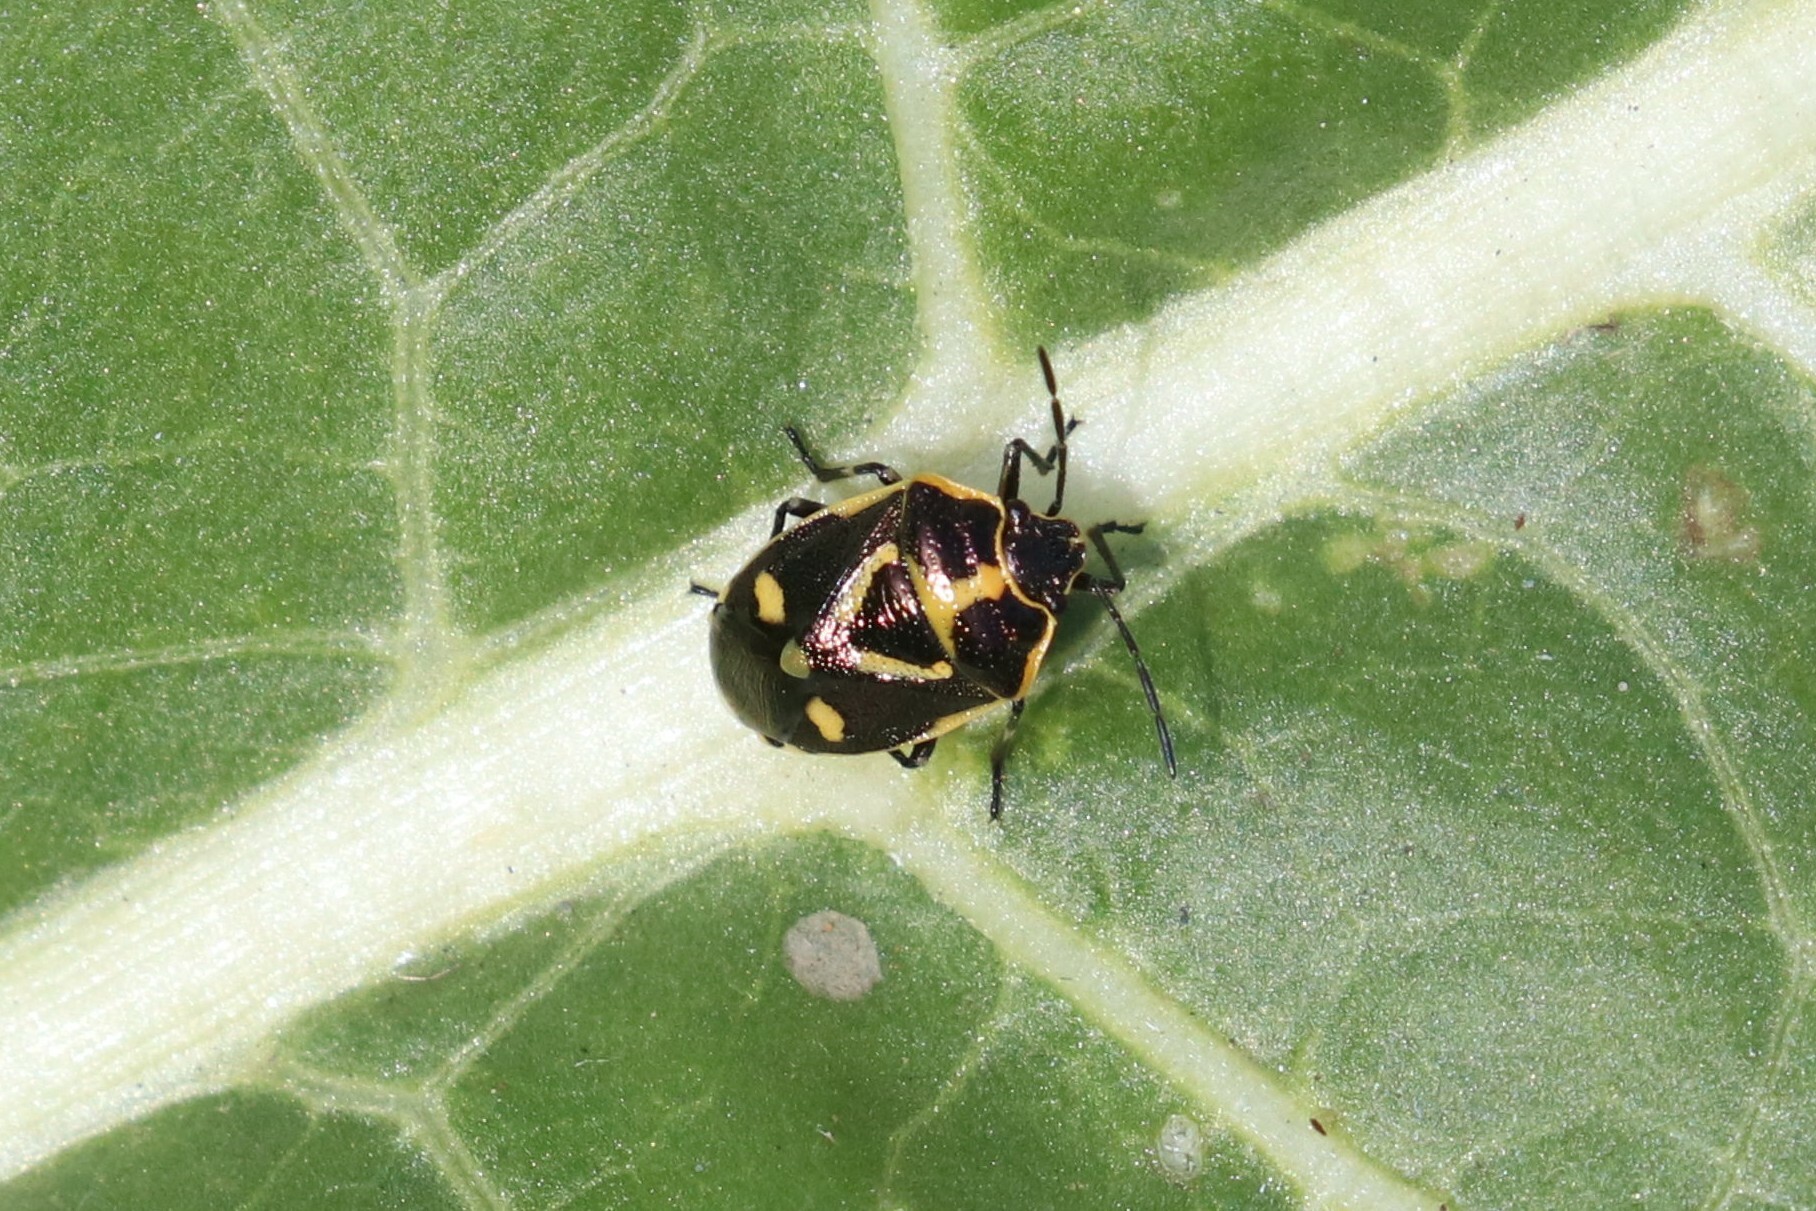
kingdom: Animalia
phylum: Arthropoda
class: Insecta
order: Hemiptera
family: Pentatomidae
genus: Eurydema
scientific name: Eurydema oleracea
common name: Cabbage bug
